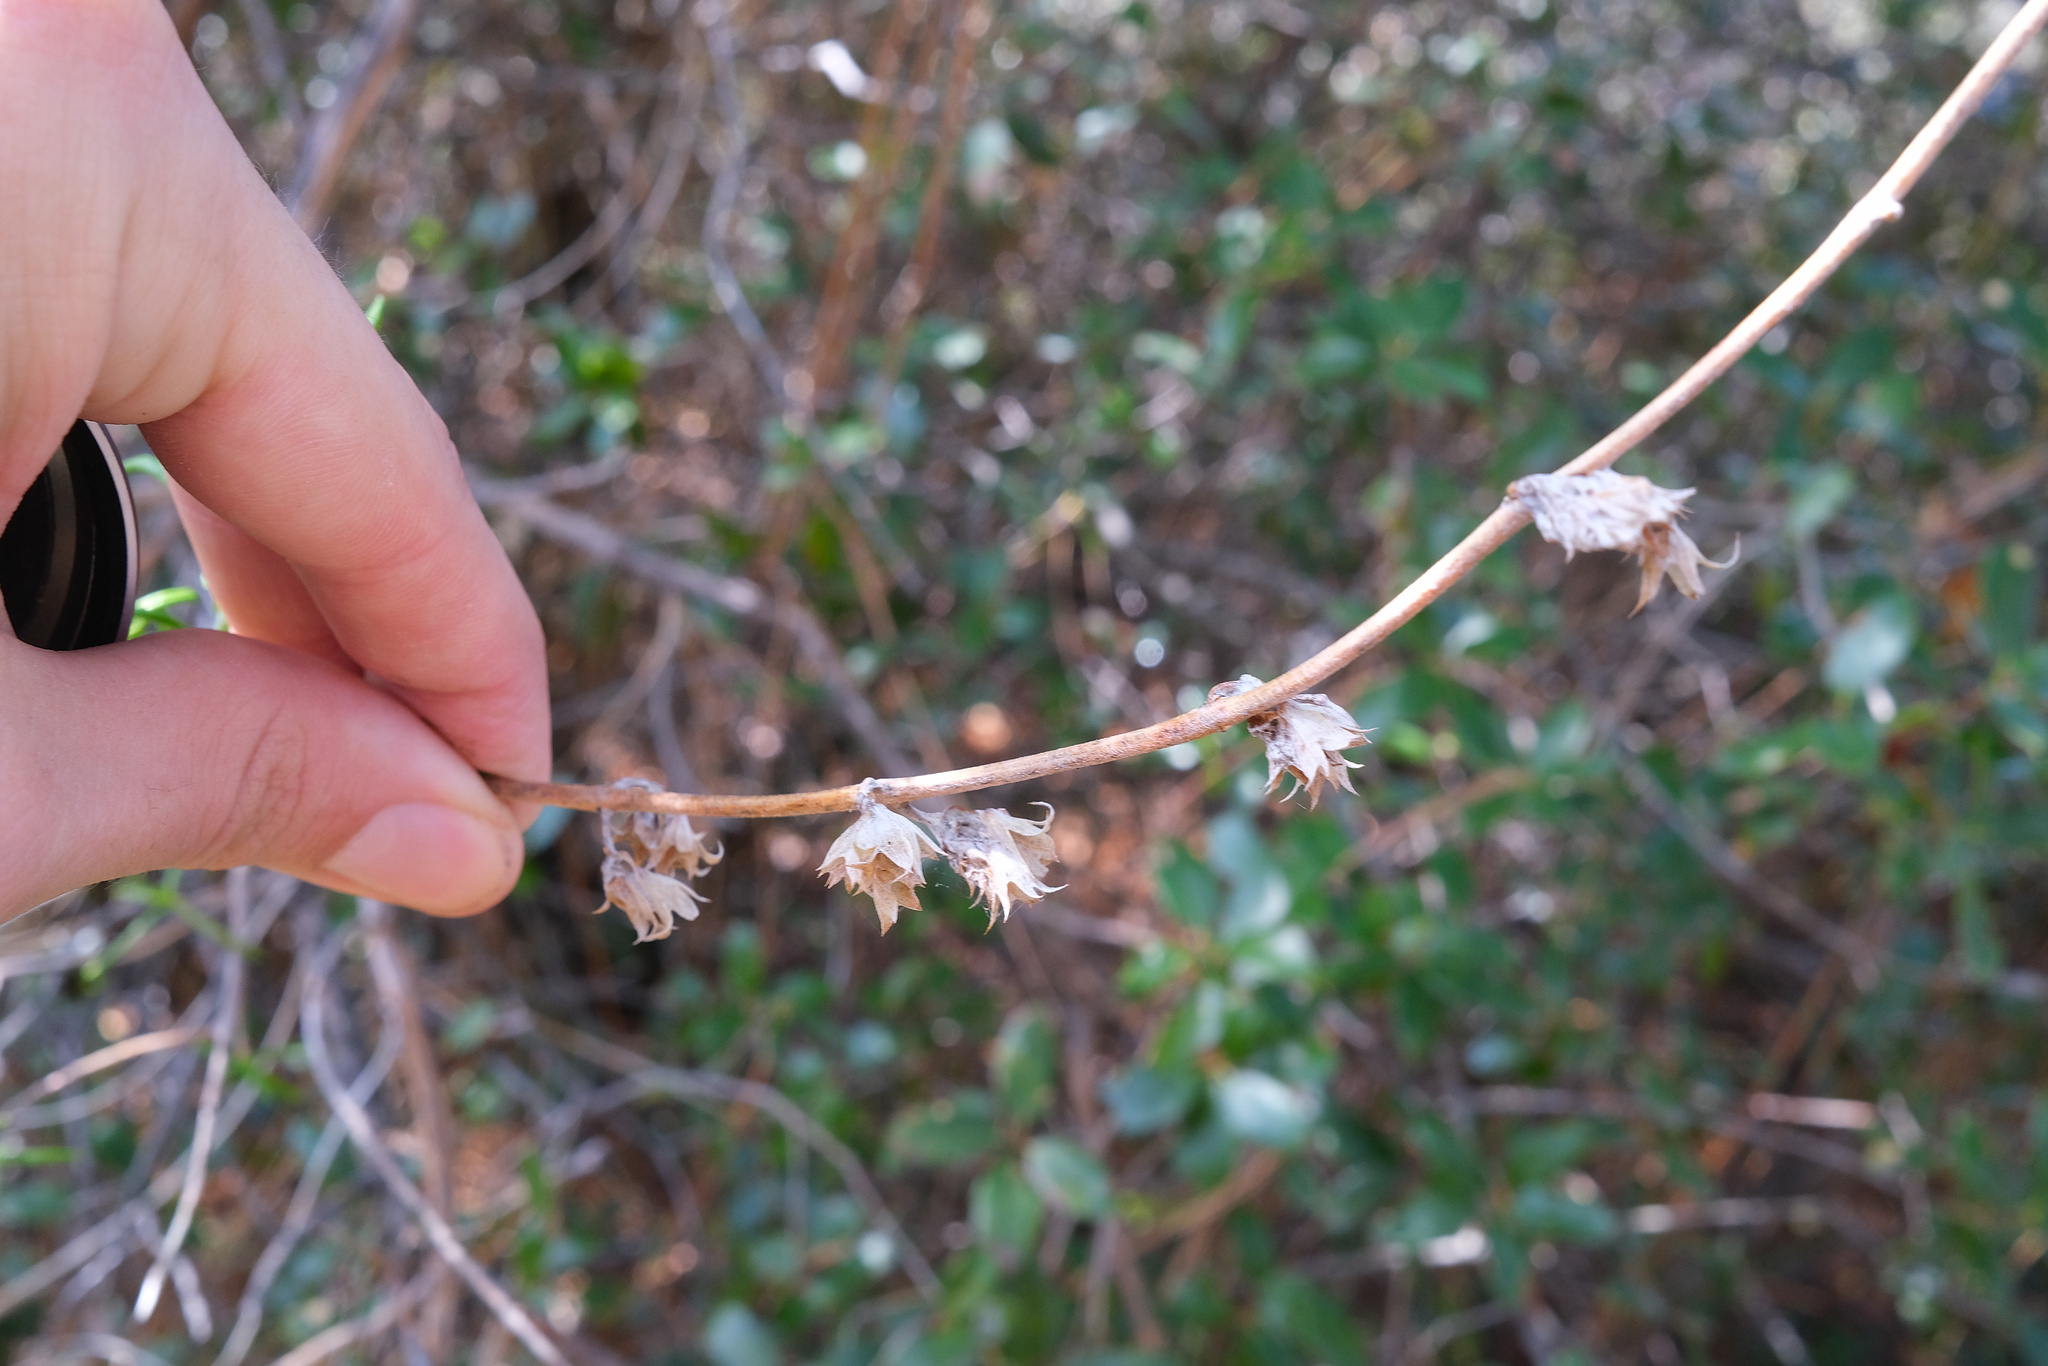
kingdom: Plantae
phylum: Tracheophyta
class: Magnoliopsida
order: Lamiales
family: Lamiaceae
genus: Trichostema
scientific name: Trichostema lanatum
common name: Woolly bluecurls
